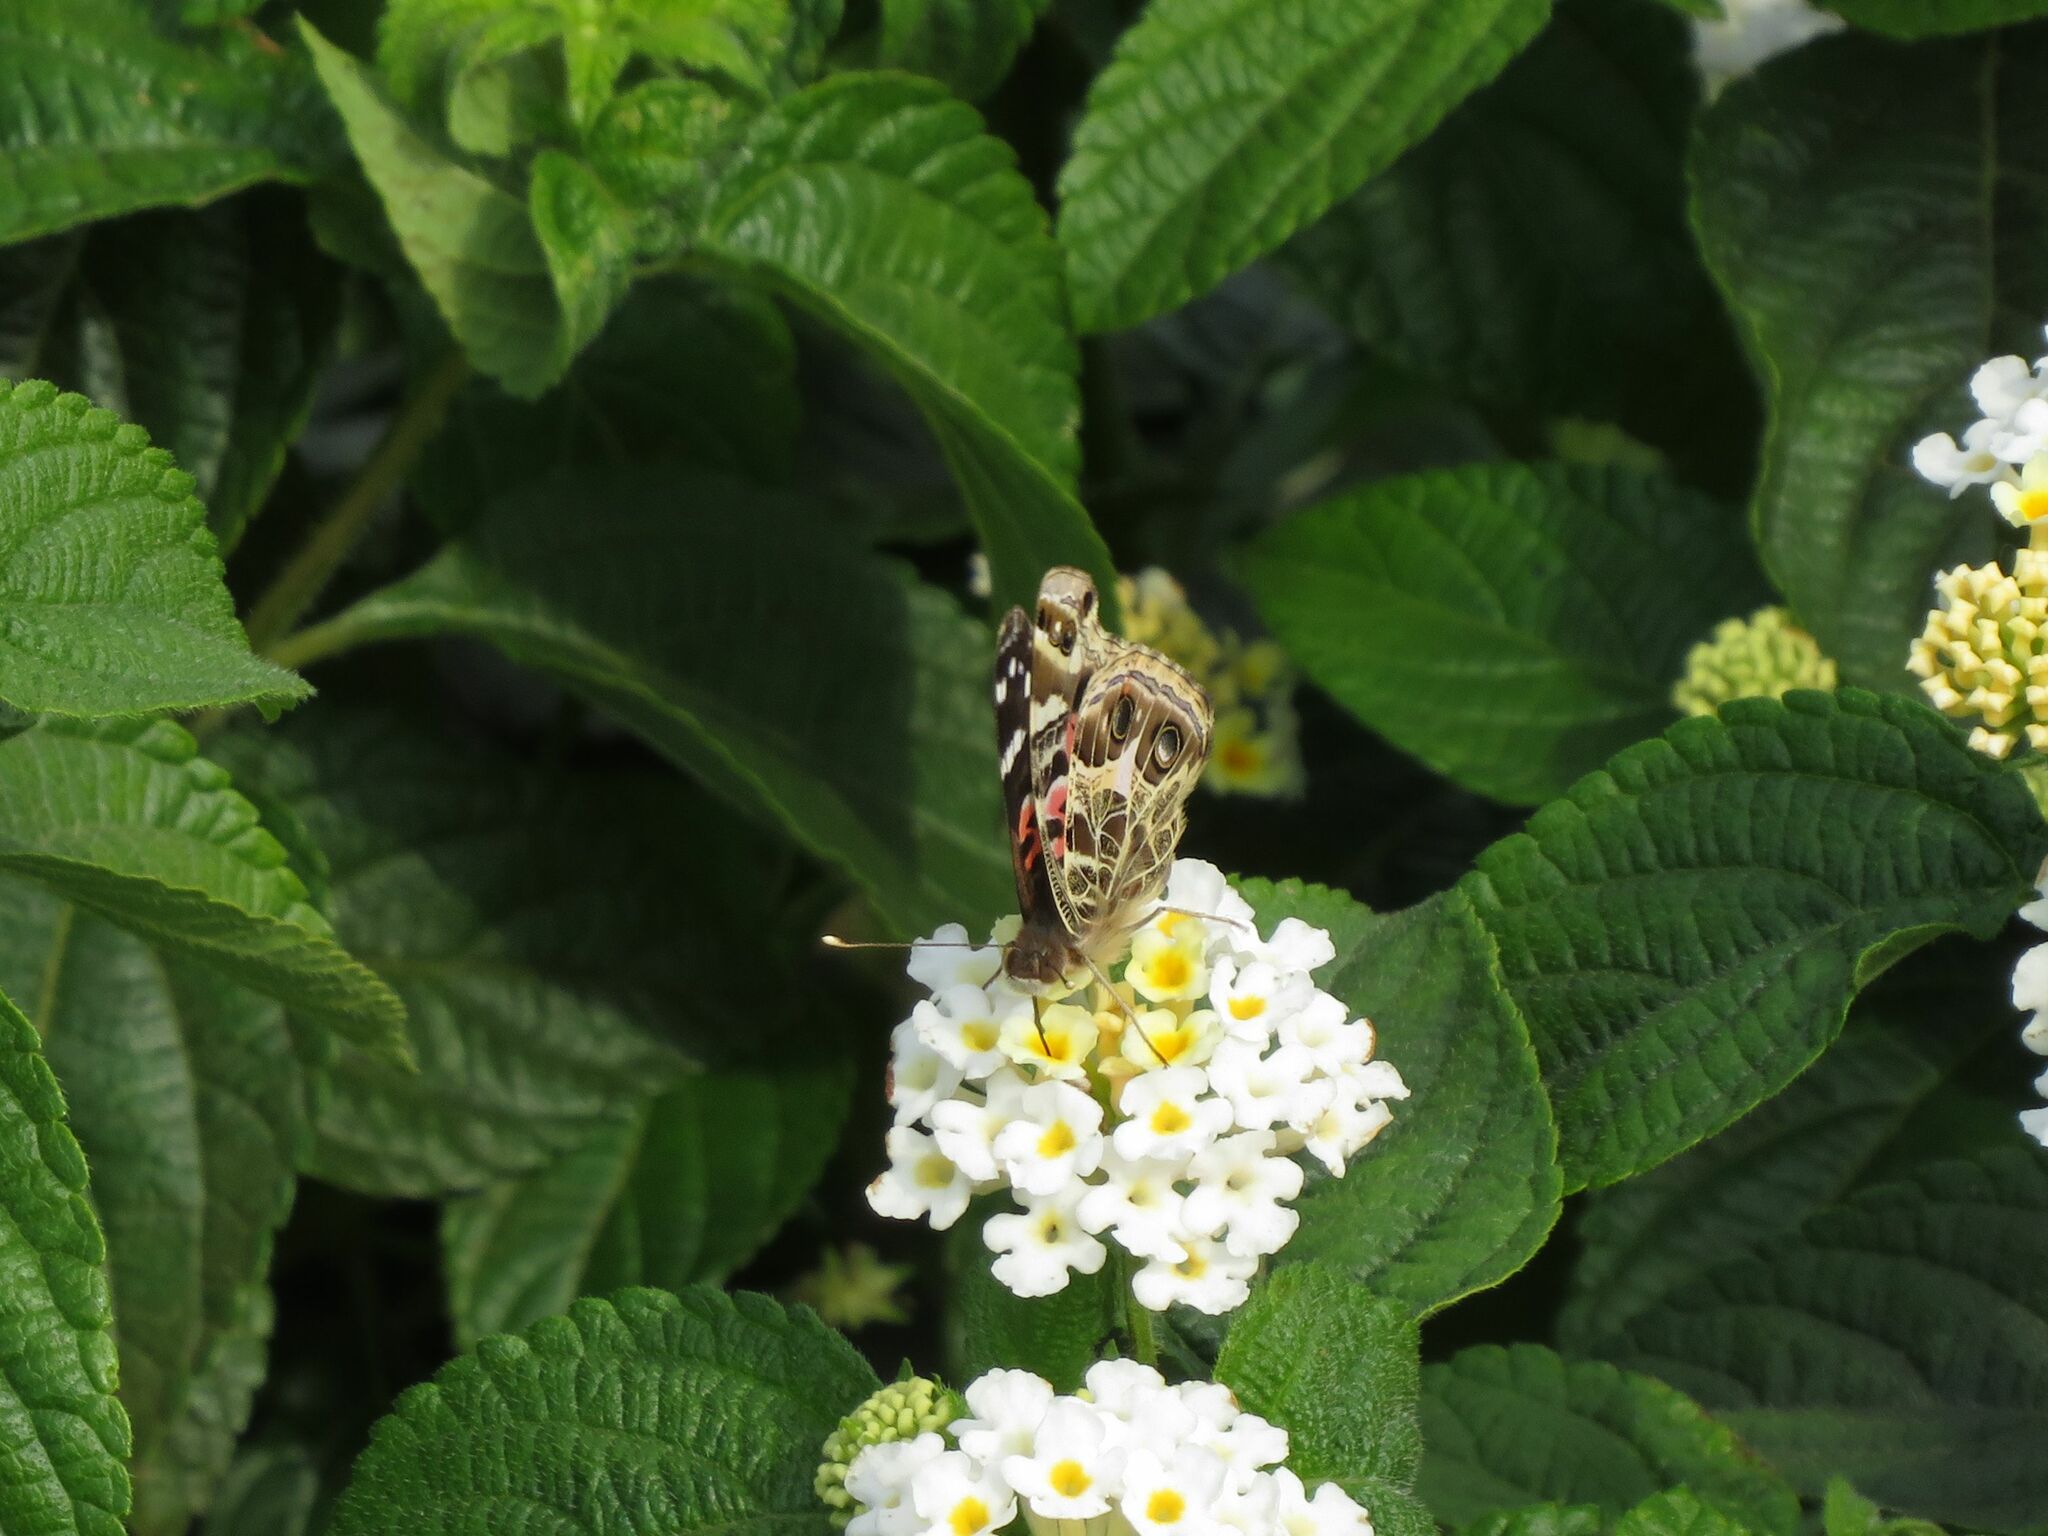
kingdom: Animalia
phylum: Arthropoda
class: Insecta
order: Lepidoptera
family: Nymphalidae
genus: Vanessa
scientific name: Vanessa braziliensis
